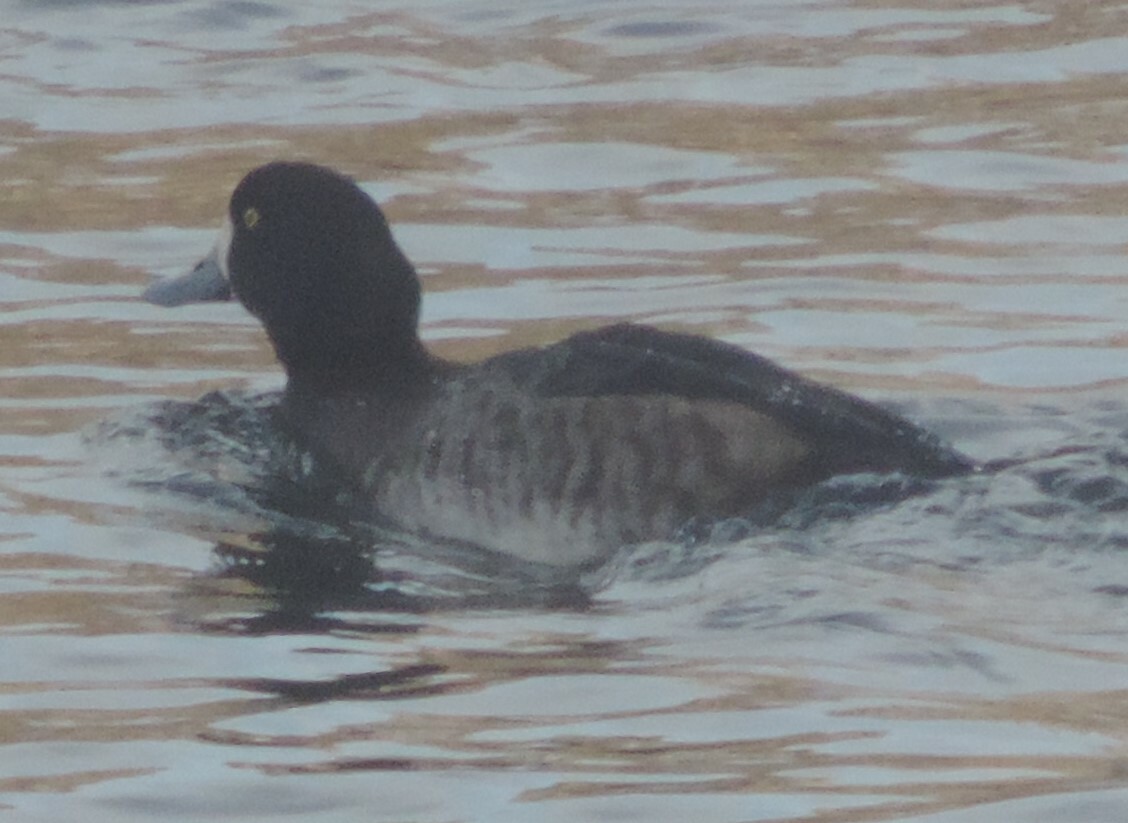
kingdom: Animalia
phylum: Chordata
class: Aves
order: Anseriformes
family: Anatidae
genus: Aythya
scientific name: Aythya marila
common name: Greater scaup
